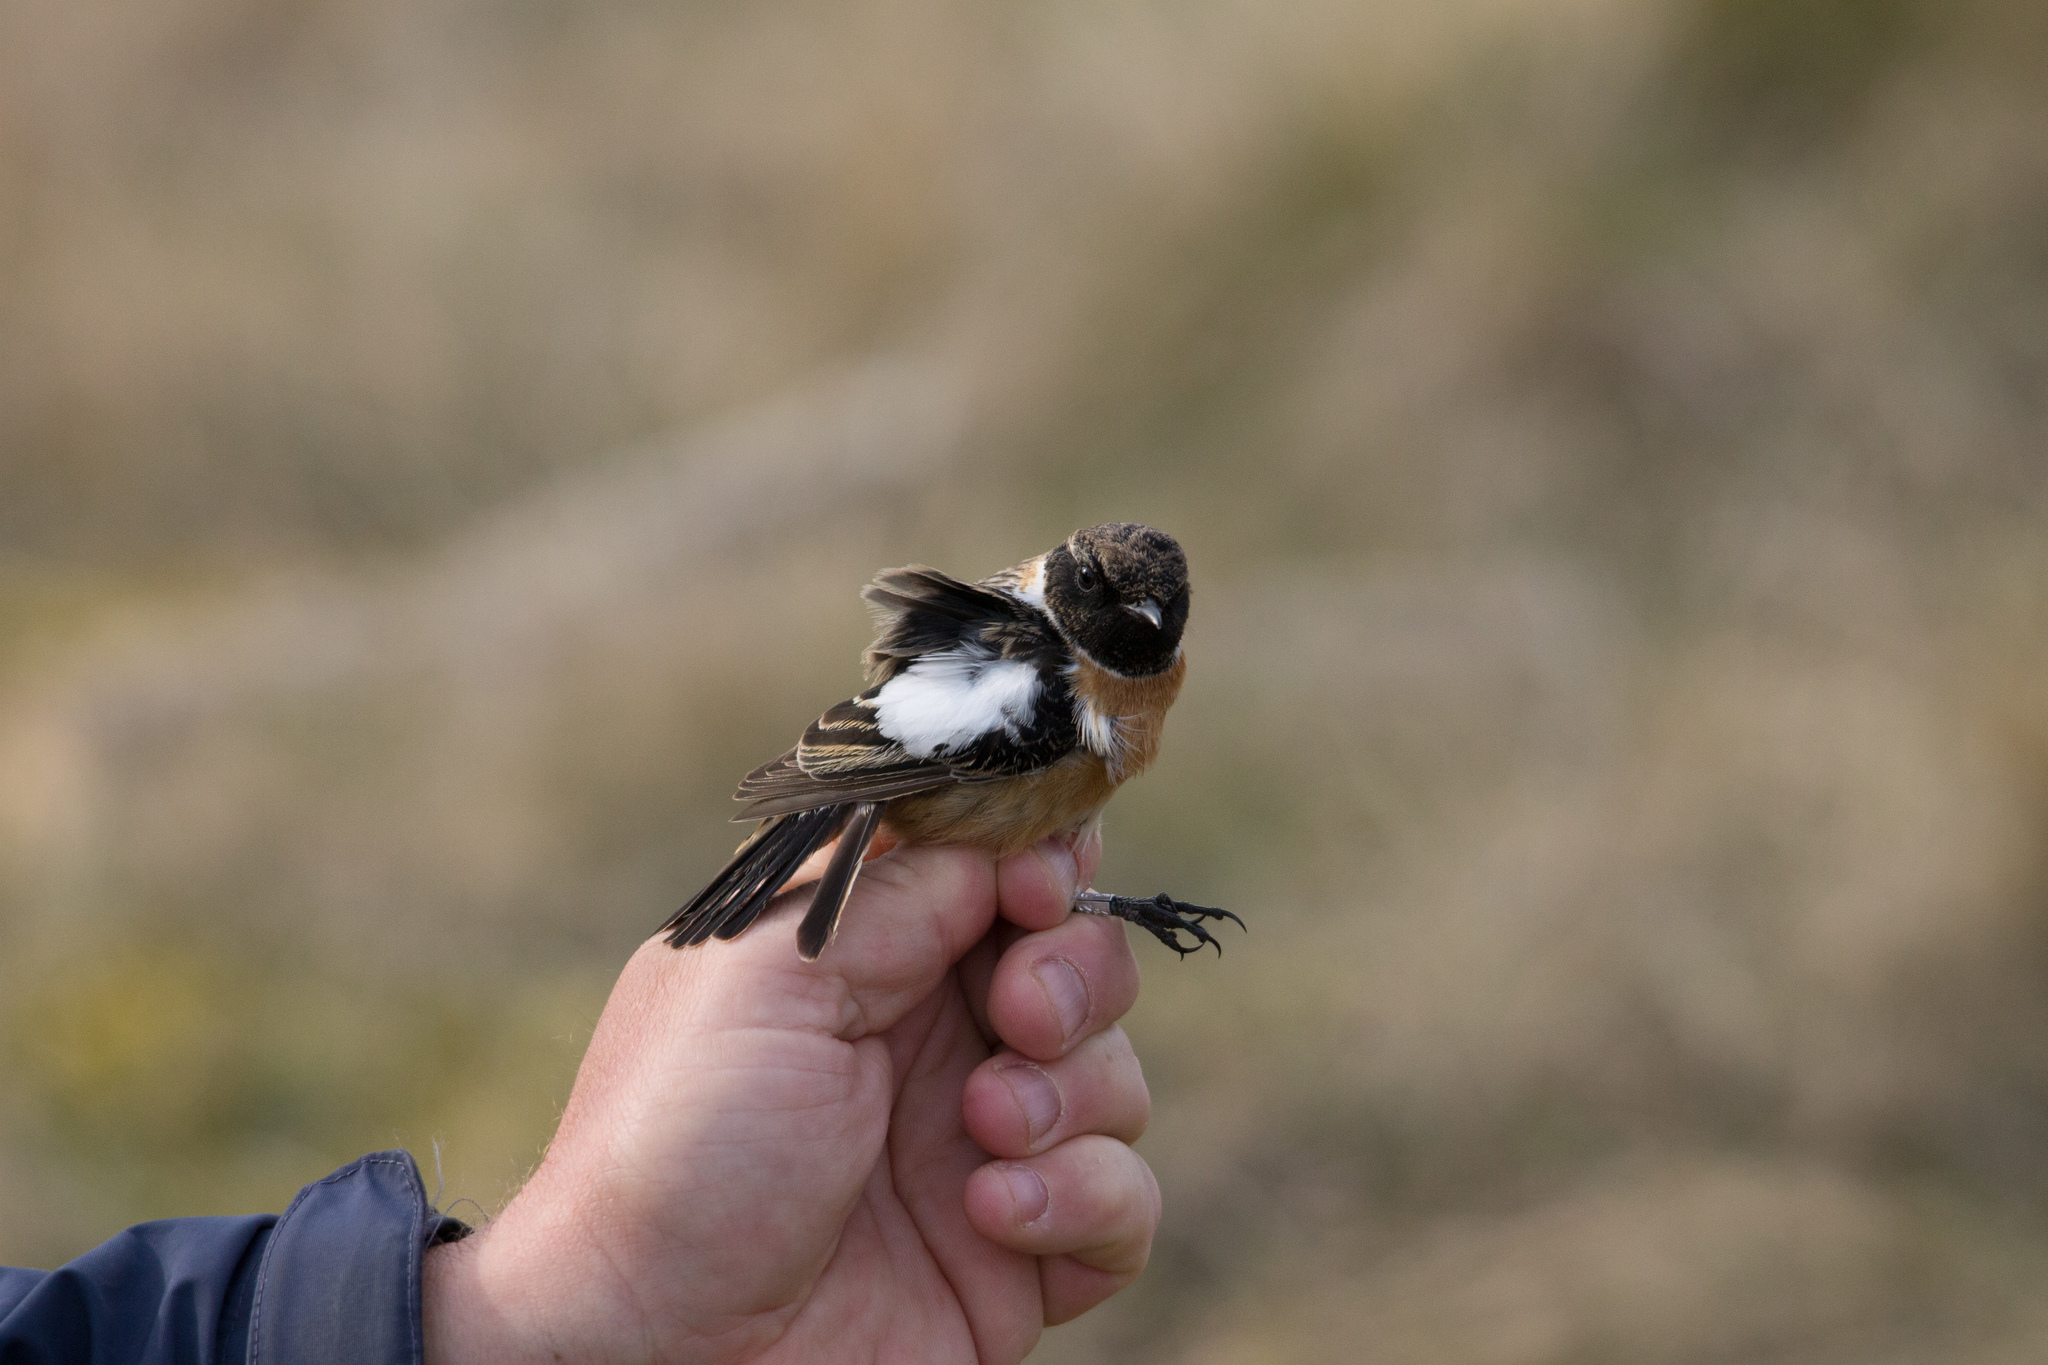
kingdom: Animalia
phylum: Chordata
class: Aves
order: Passeriformes
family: Muscicapidae
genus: Saxicola
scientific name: Saxicola rubicola
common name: European stonechat
